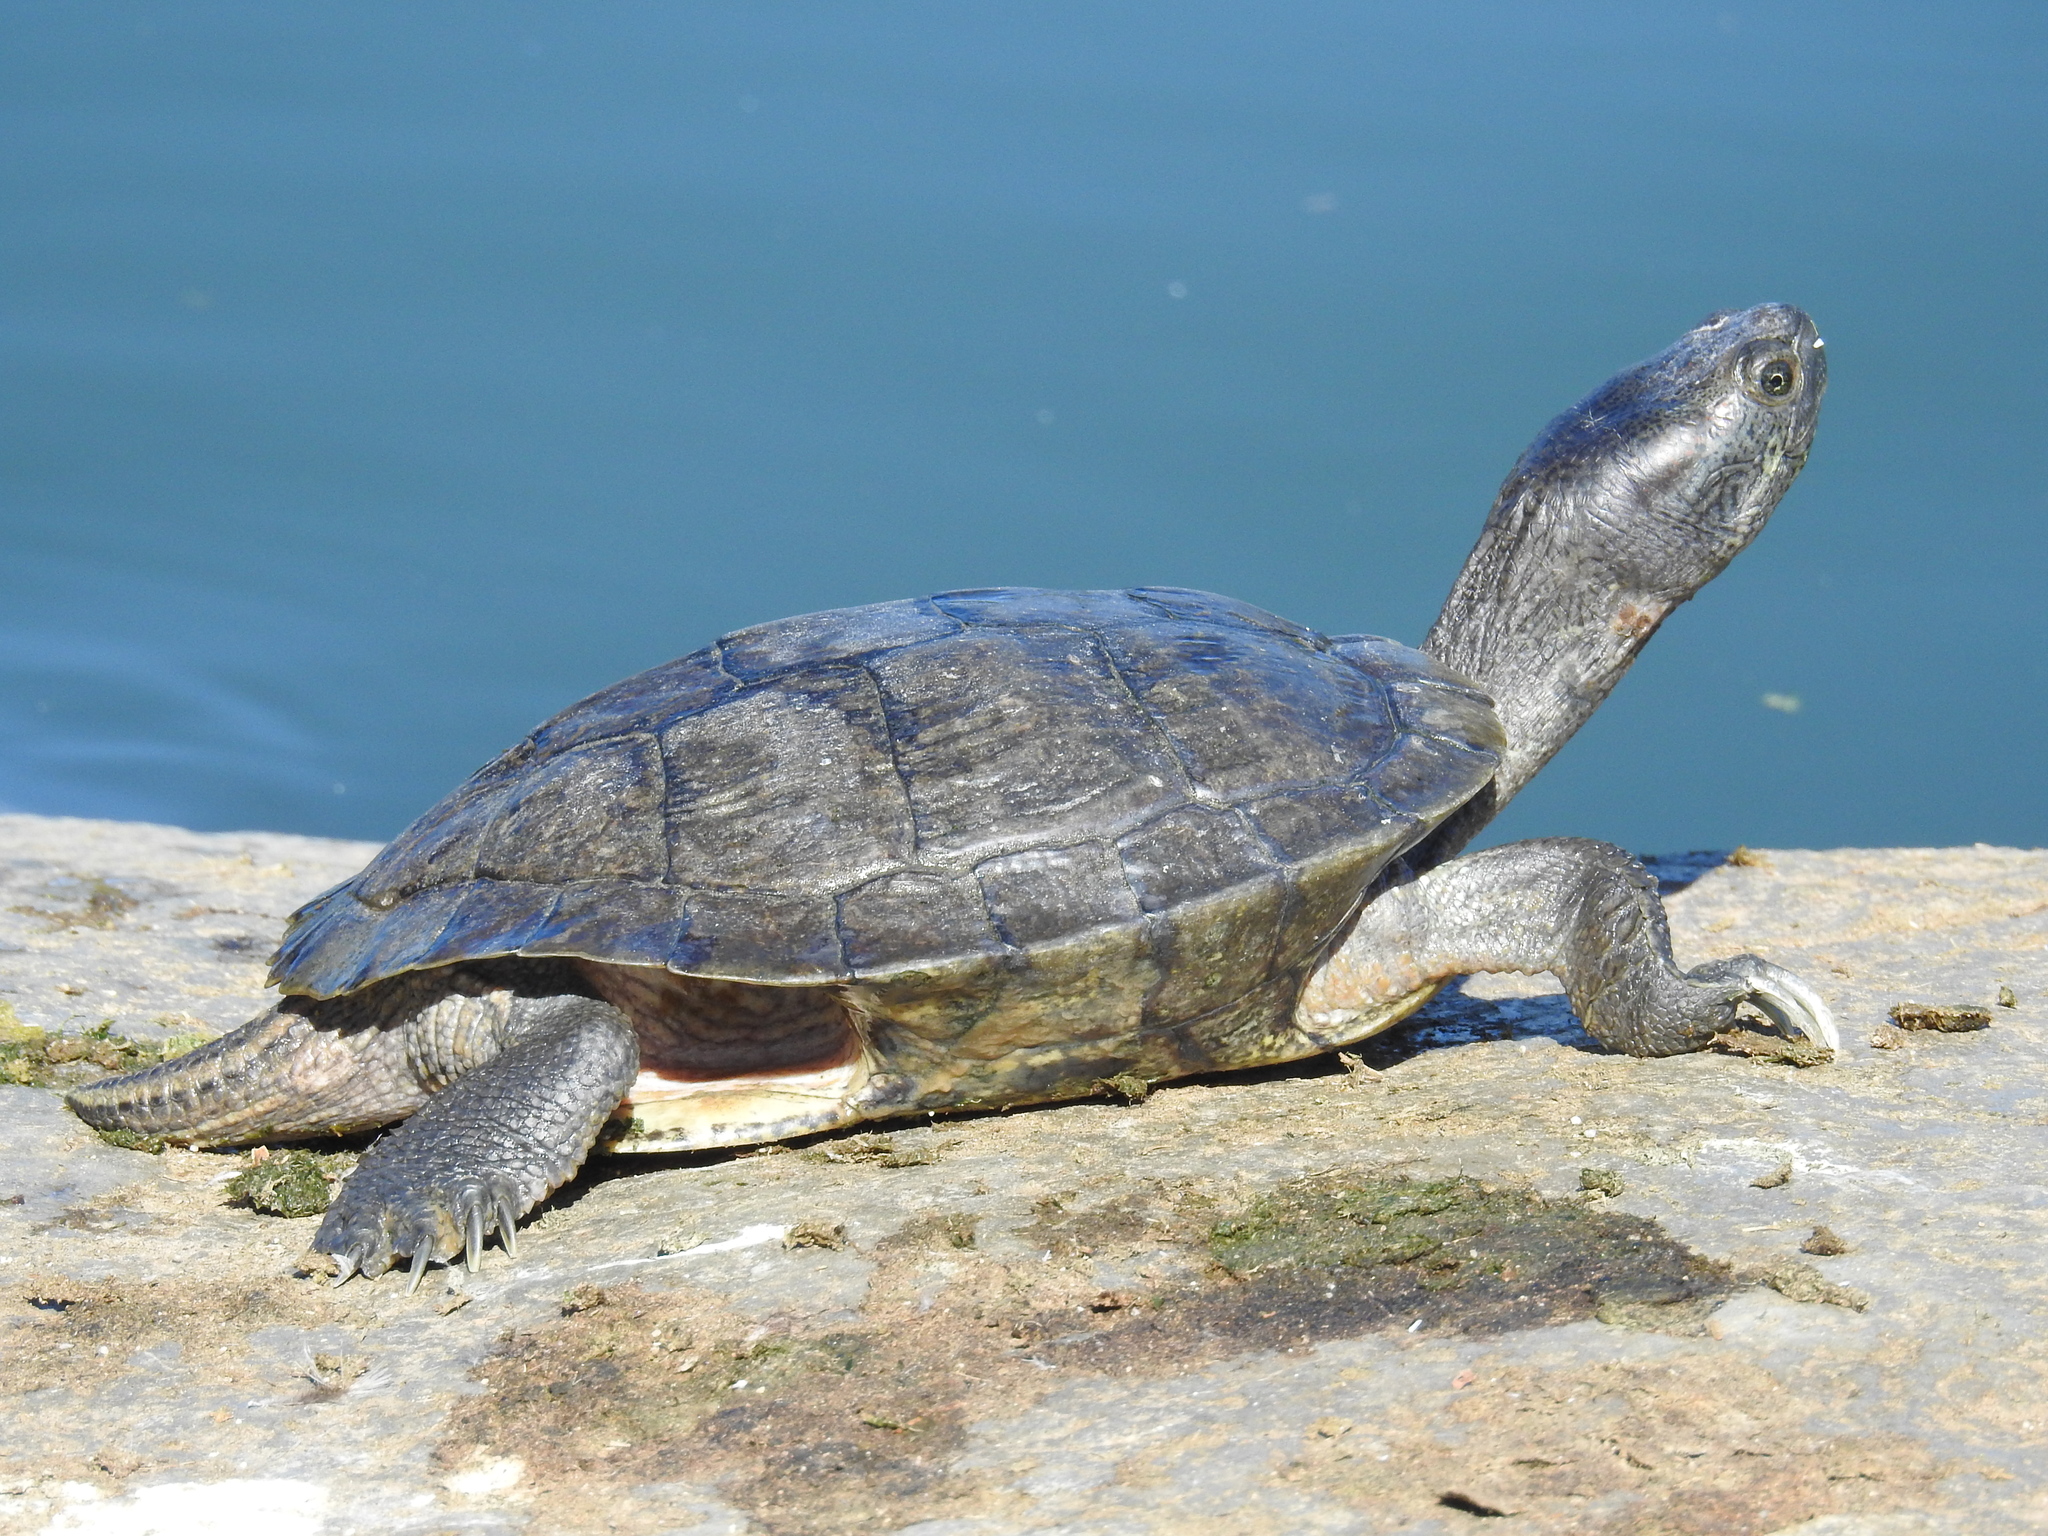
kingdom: Animalia
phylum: Chordata
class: Testudines
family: Emydidae
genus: Trachemys
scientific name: Trachemys scripta
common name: Slider
